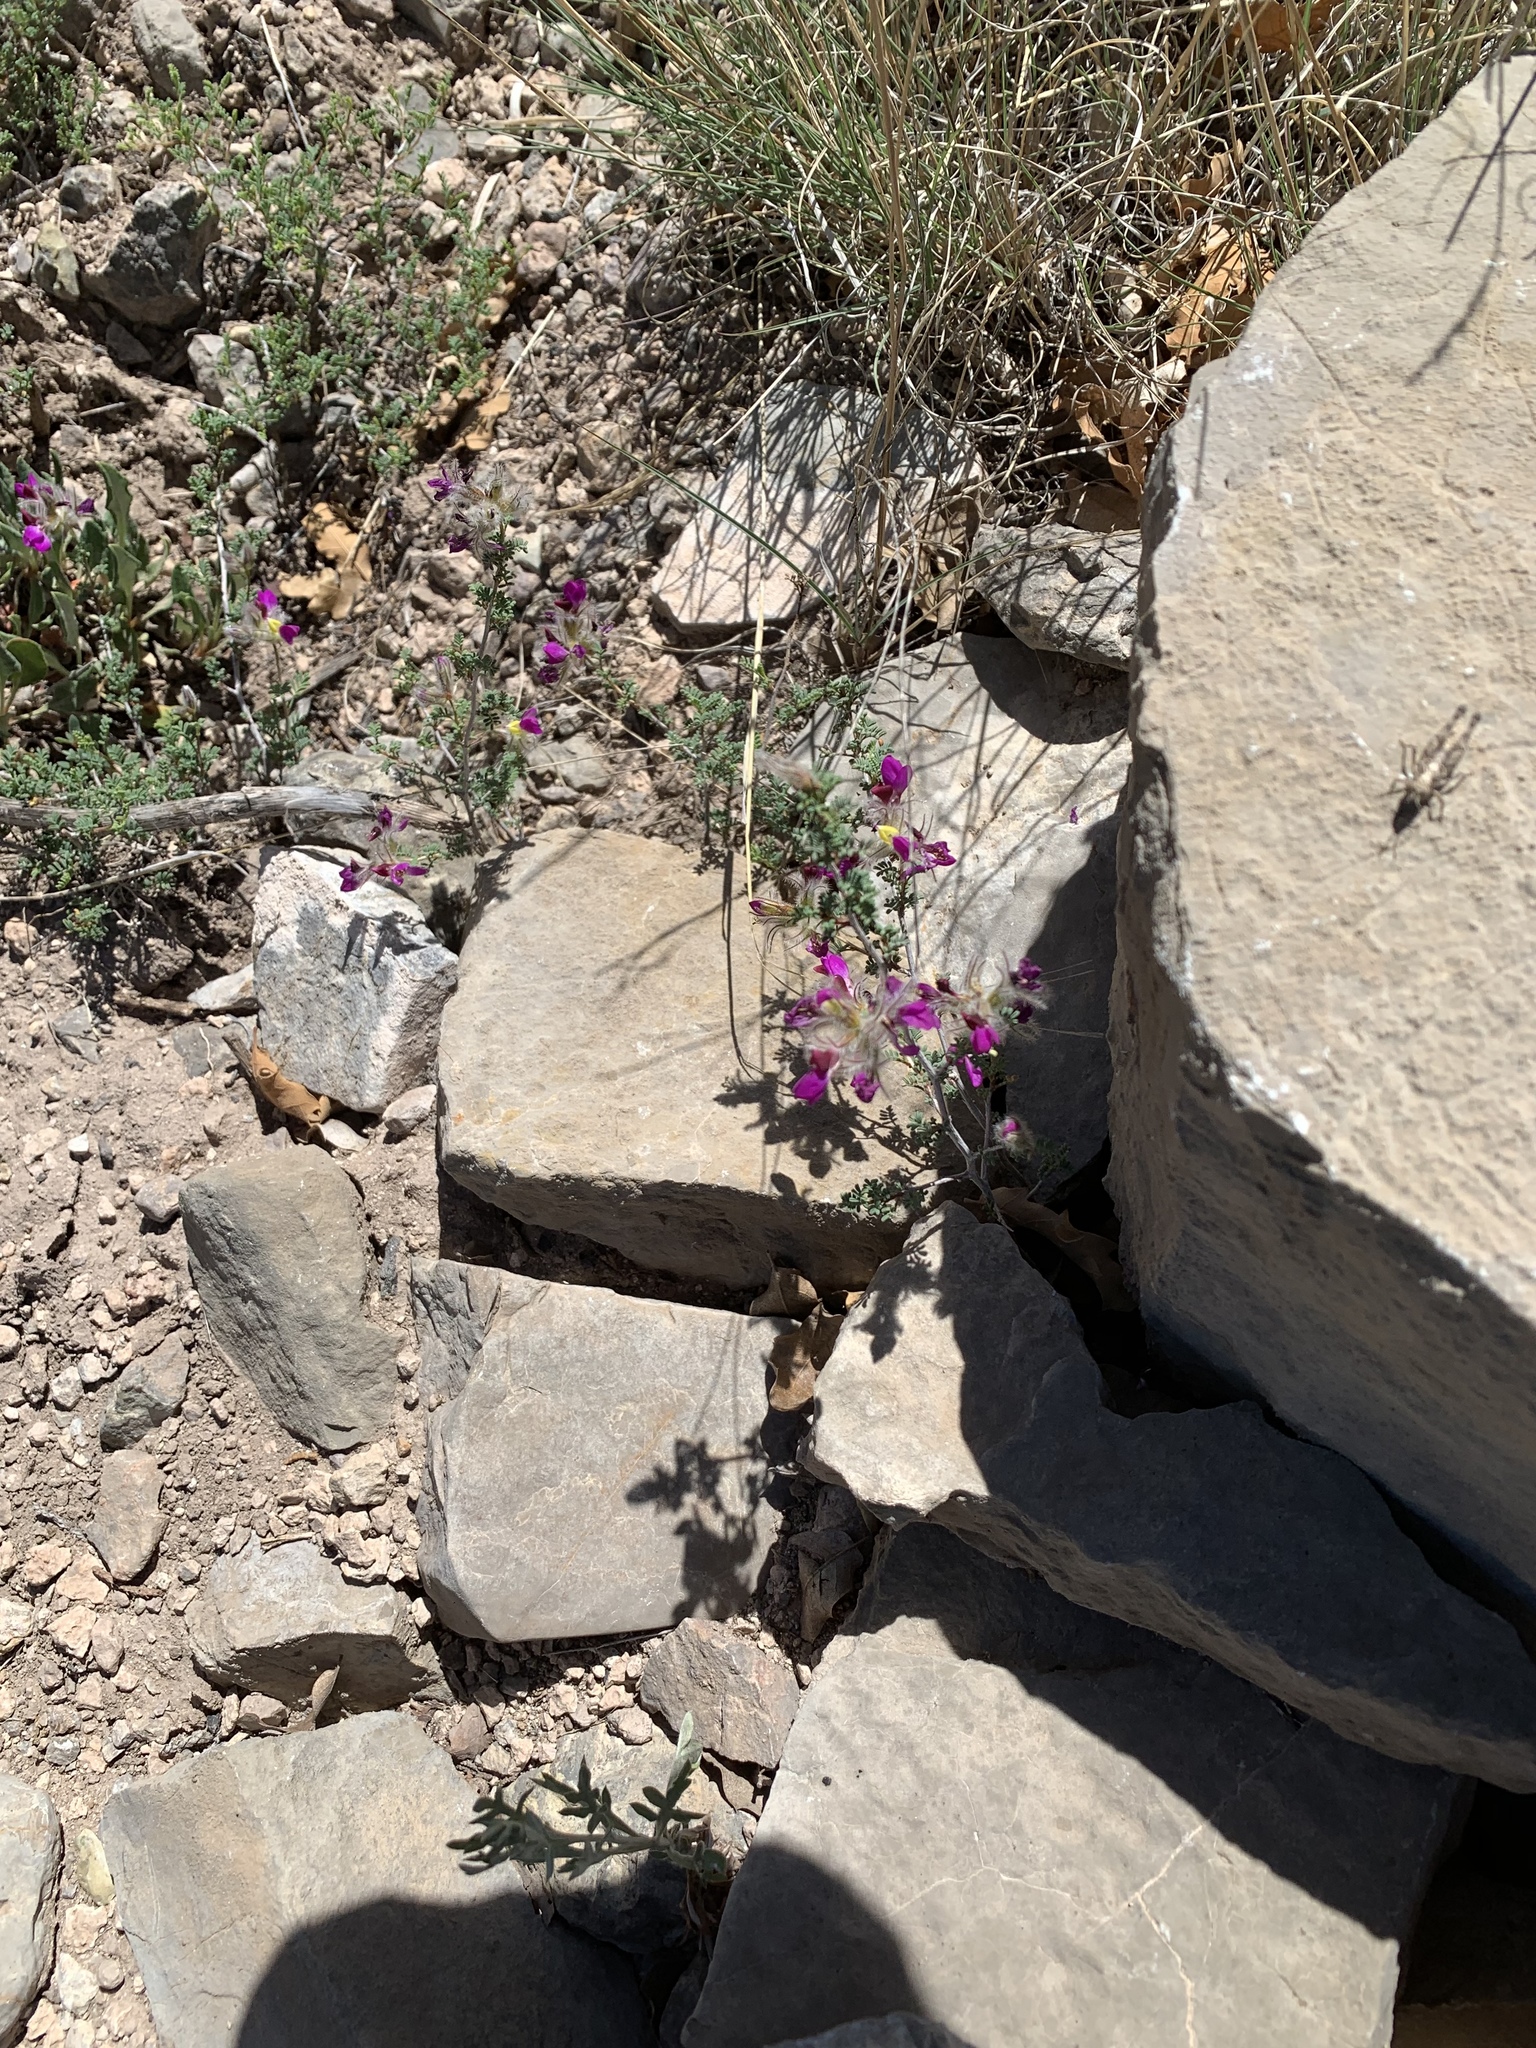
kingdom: Plantae
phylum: Tracheophyta
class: Magnoliopsida
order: Fabales
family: Fabaceae
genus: Dalea
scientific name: Dalea formosa
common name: Feather-plume dalea
